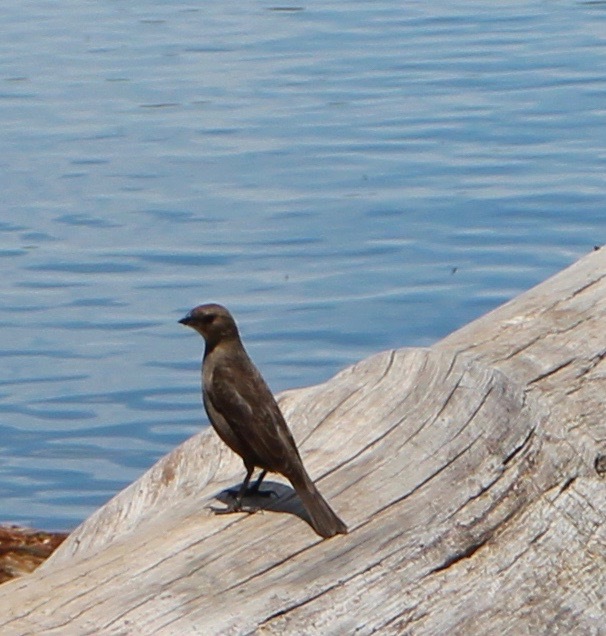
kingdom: Animalia
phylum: Chordata
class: Aves
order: Passeriformes
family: Icteridae
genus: Molothrus
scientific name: Molothrus ater
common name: Brown-headed cowbird
